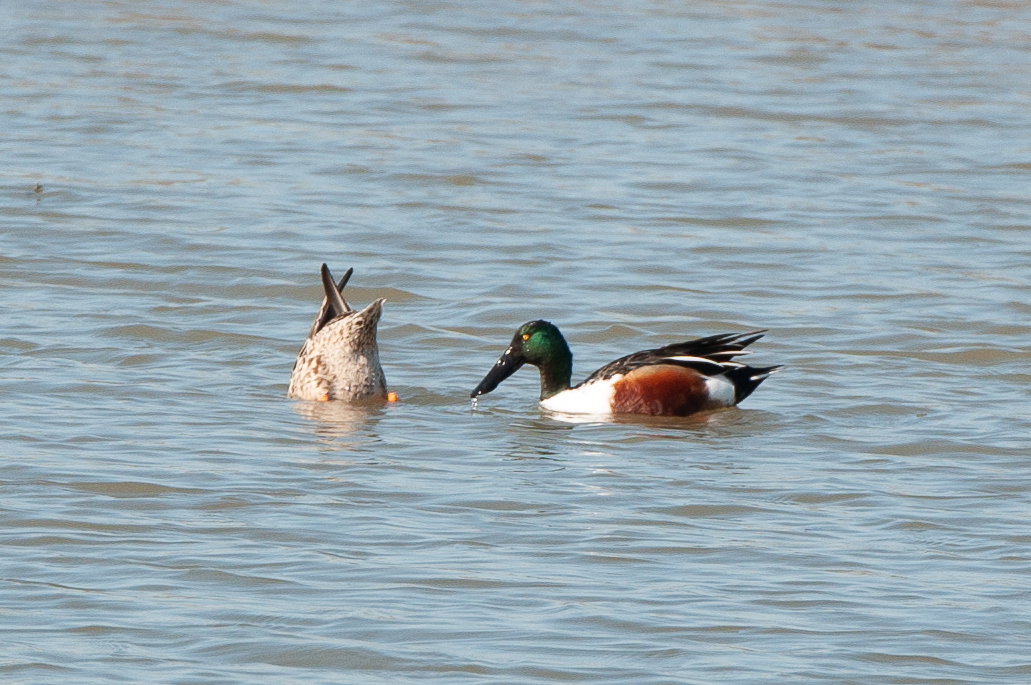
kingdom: Animalia
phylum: Chordata
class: Aves
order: Anseriformes
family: Anatidae
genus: Spatula
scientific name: Spatula clypeata
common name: Northern shoveler
